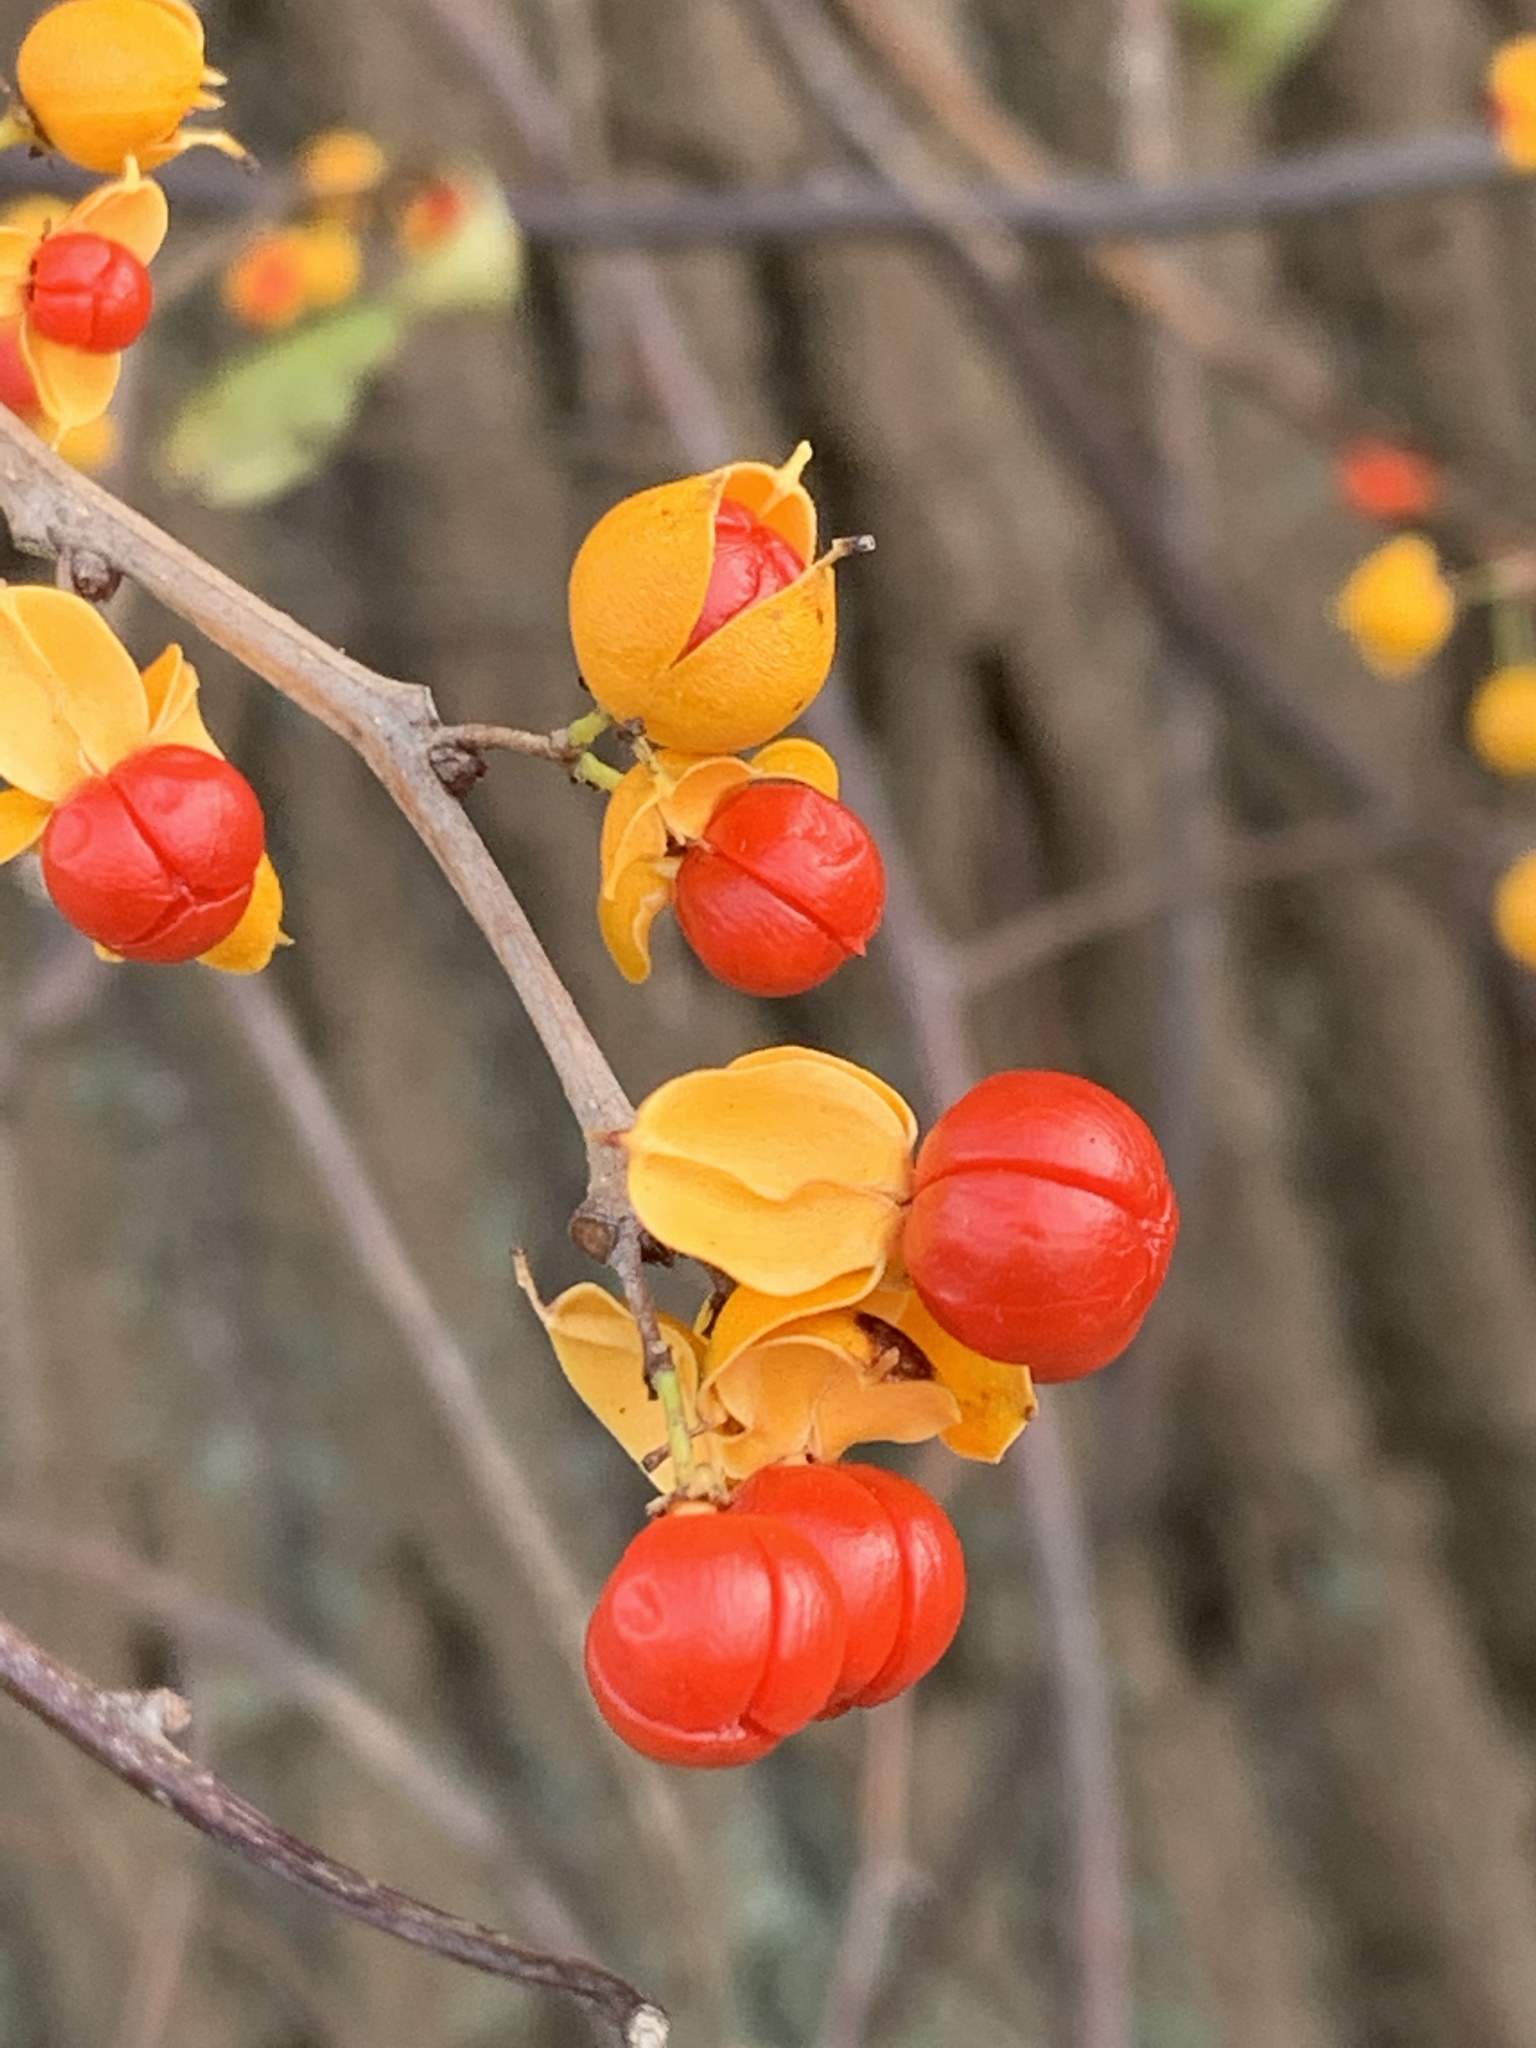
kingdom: Plantae
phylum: Tracheophyta
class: Magnoliopsida
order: Celastrales
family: Celastraceae
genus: Celastrus
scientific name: Celastrus orbiculatus
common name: Oriental bittersweet
